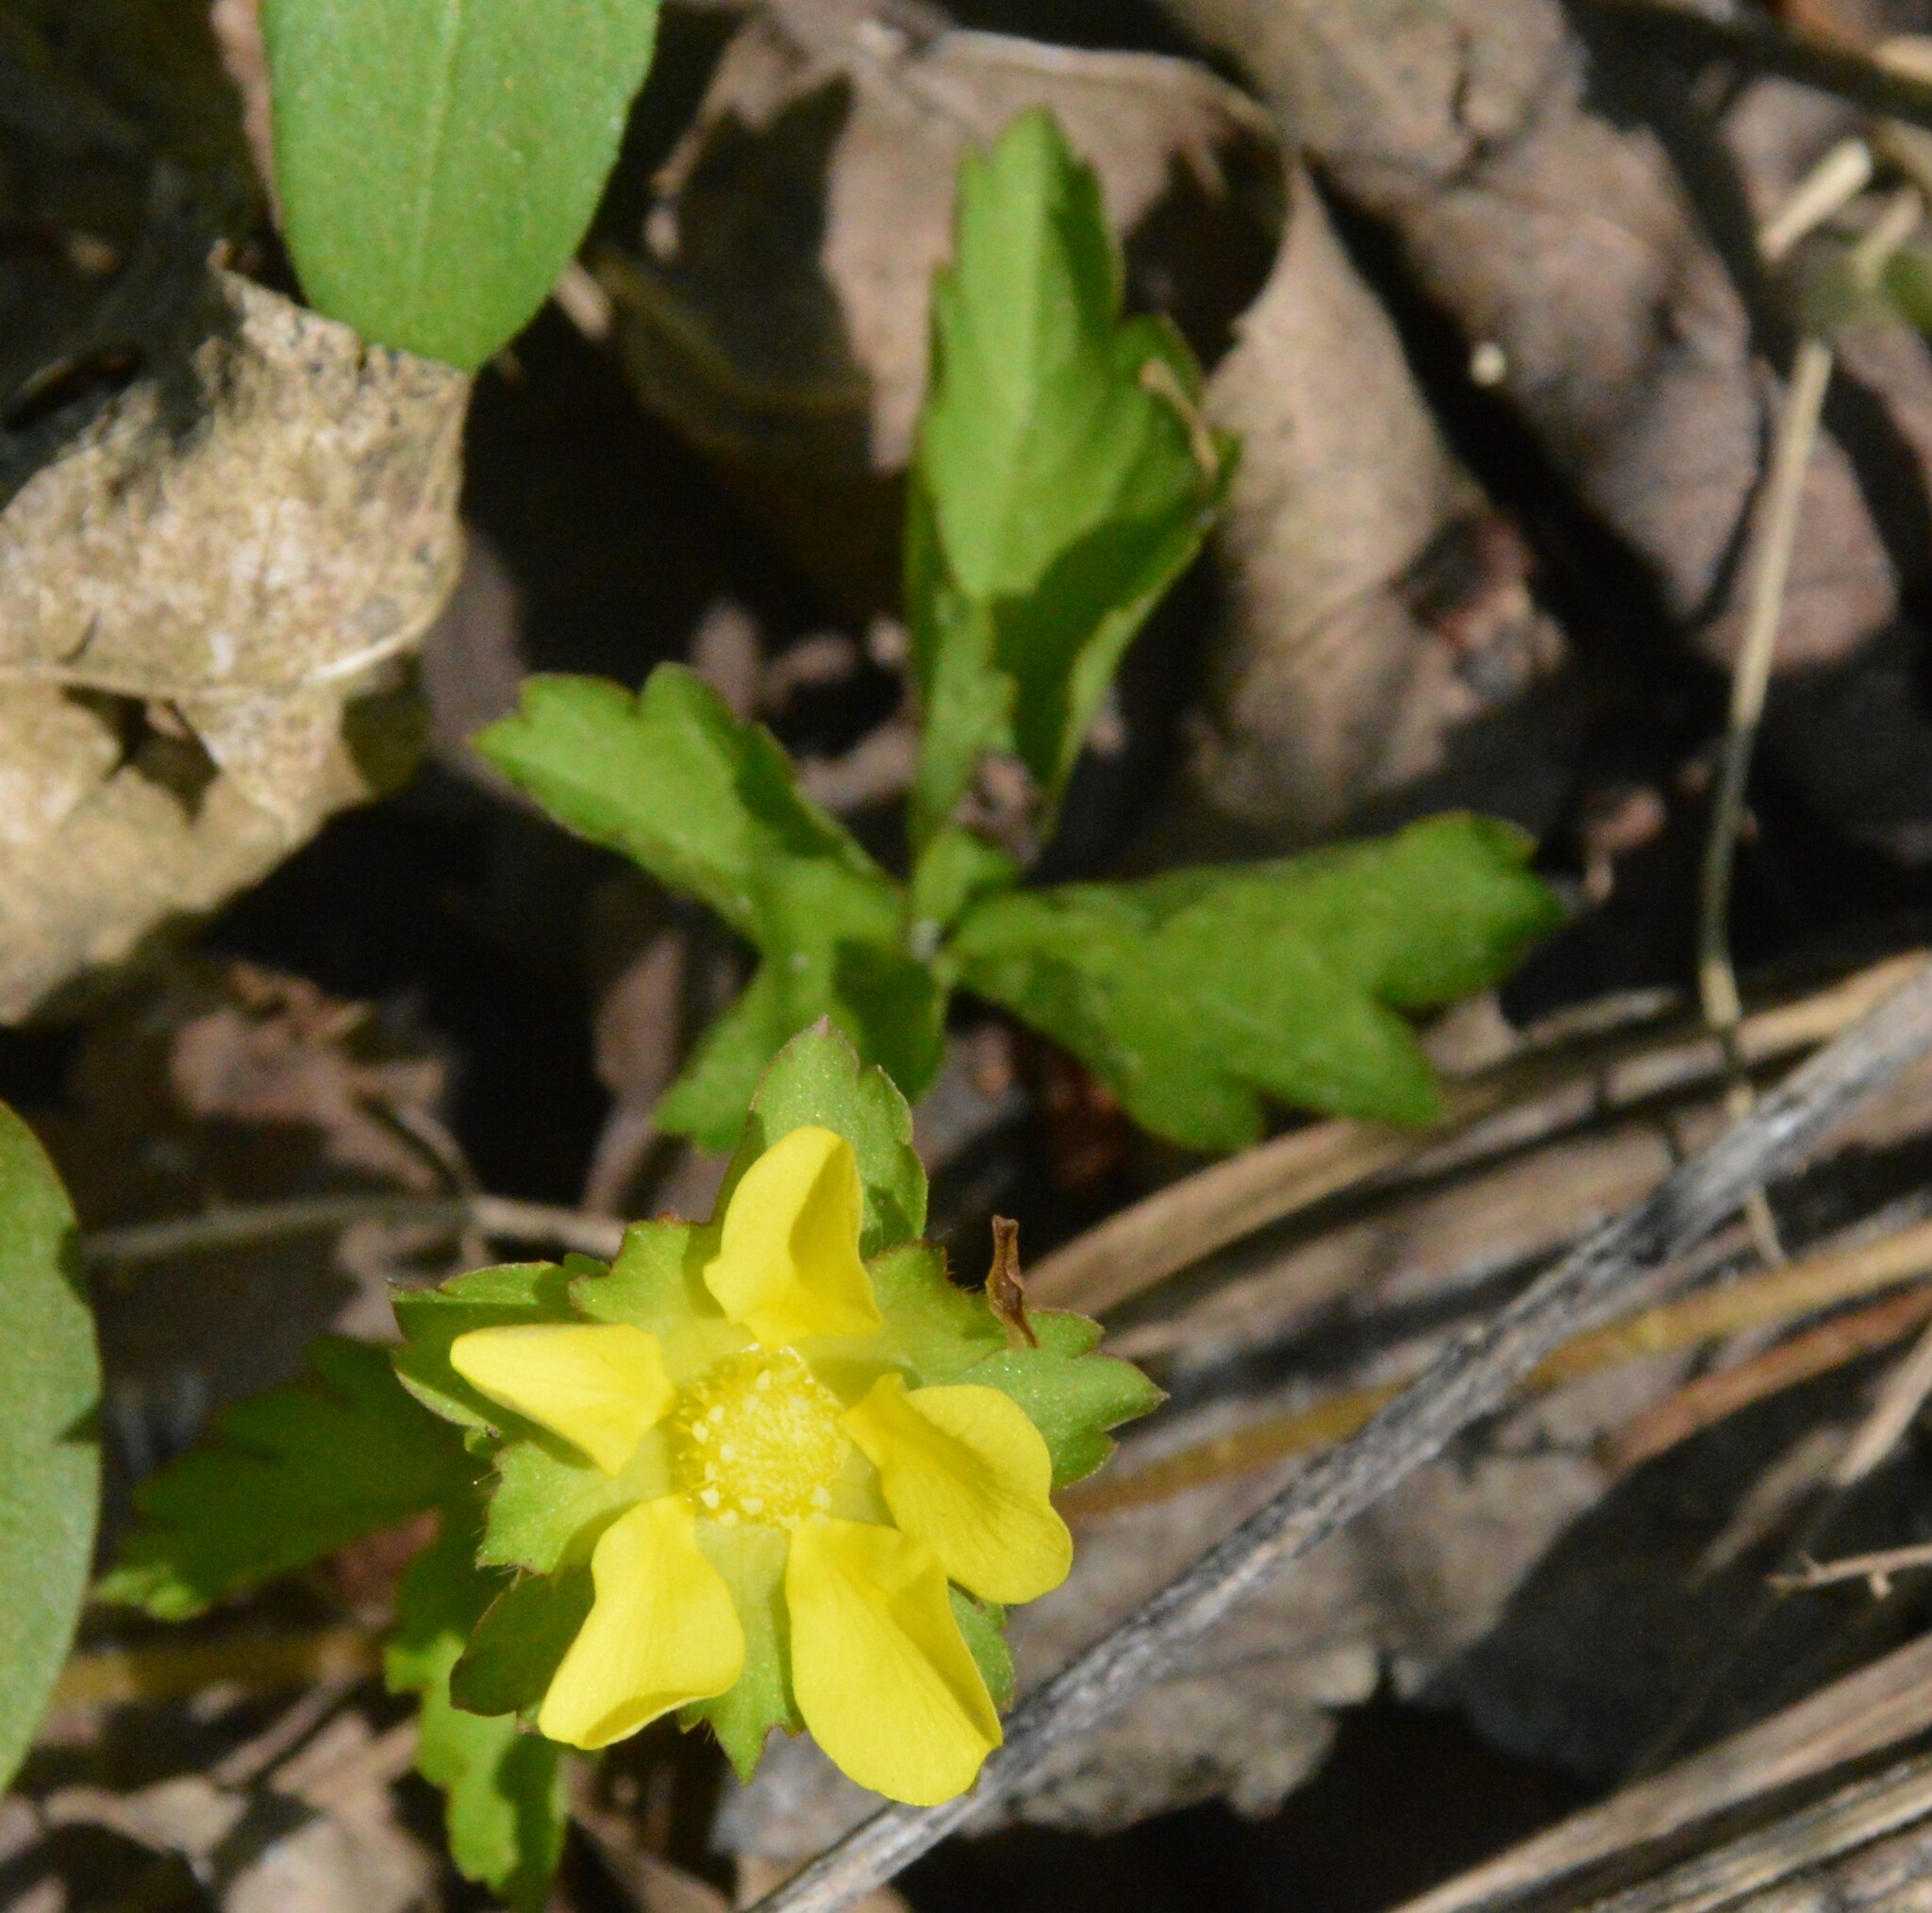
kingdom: Plantae
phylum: Tracheophyta
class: Magnoliopsida
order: Rosales
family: Rosaceae
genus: Potentilla
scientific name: Potentilla indica
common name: Yellow-flowered strawberry
